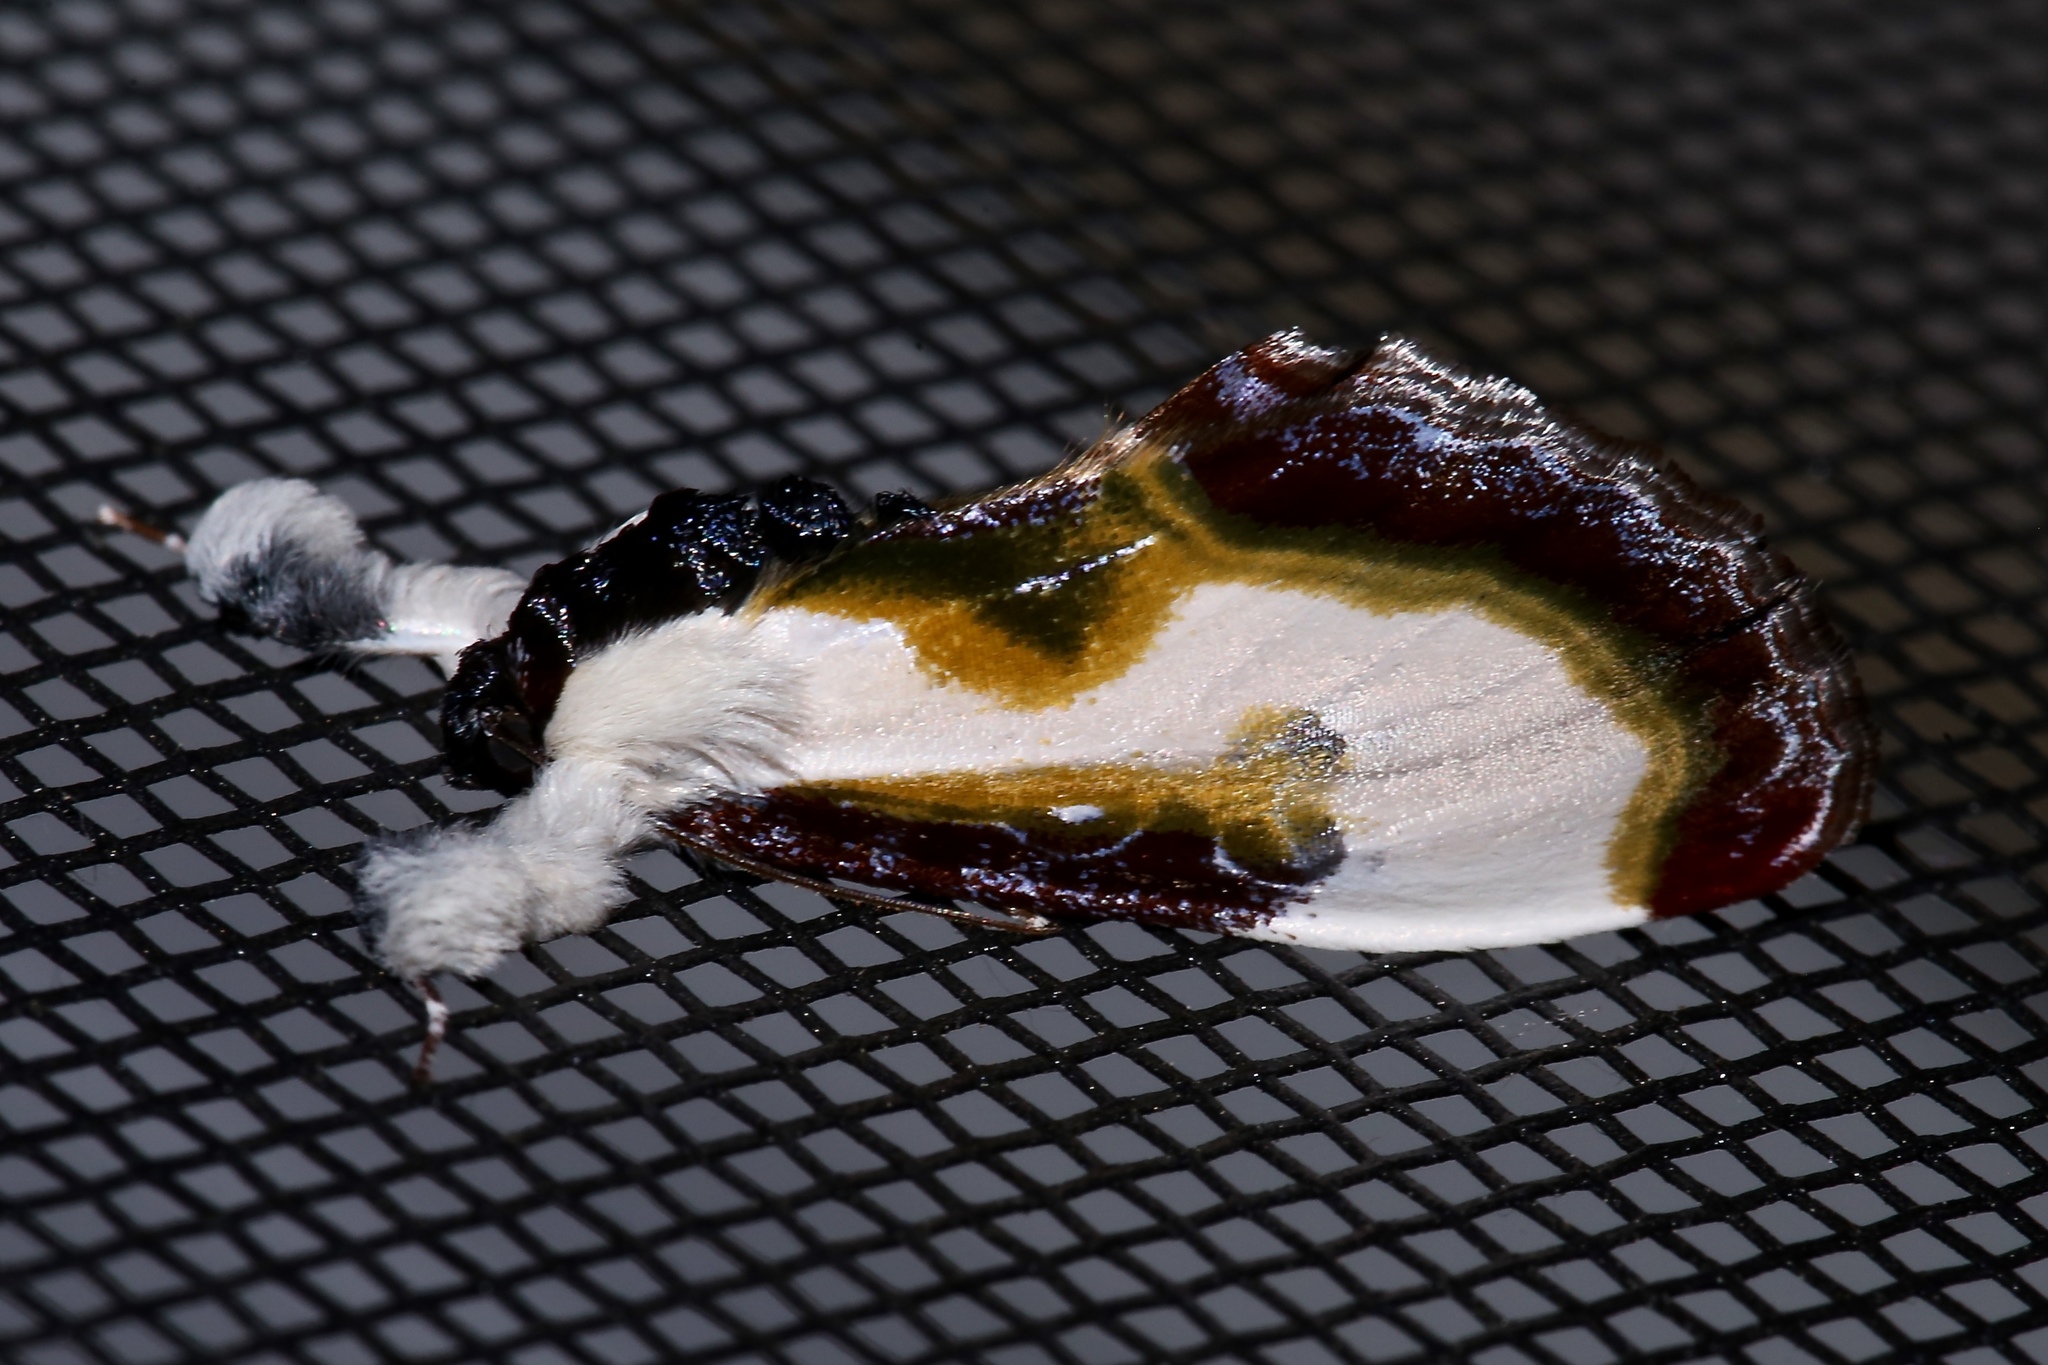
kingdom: Animalia
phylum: Arthropoda
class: Insecta
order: Lepidoptera
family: Noctuidae
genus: Eudryas
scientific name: Eudryas grata
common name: Beautiful wood-nymph
